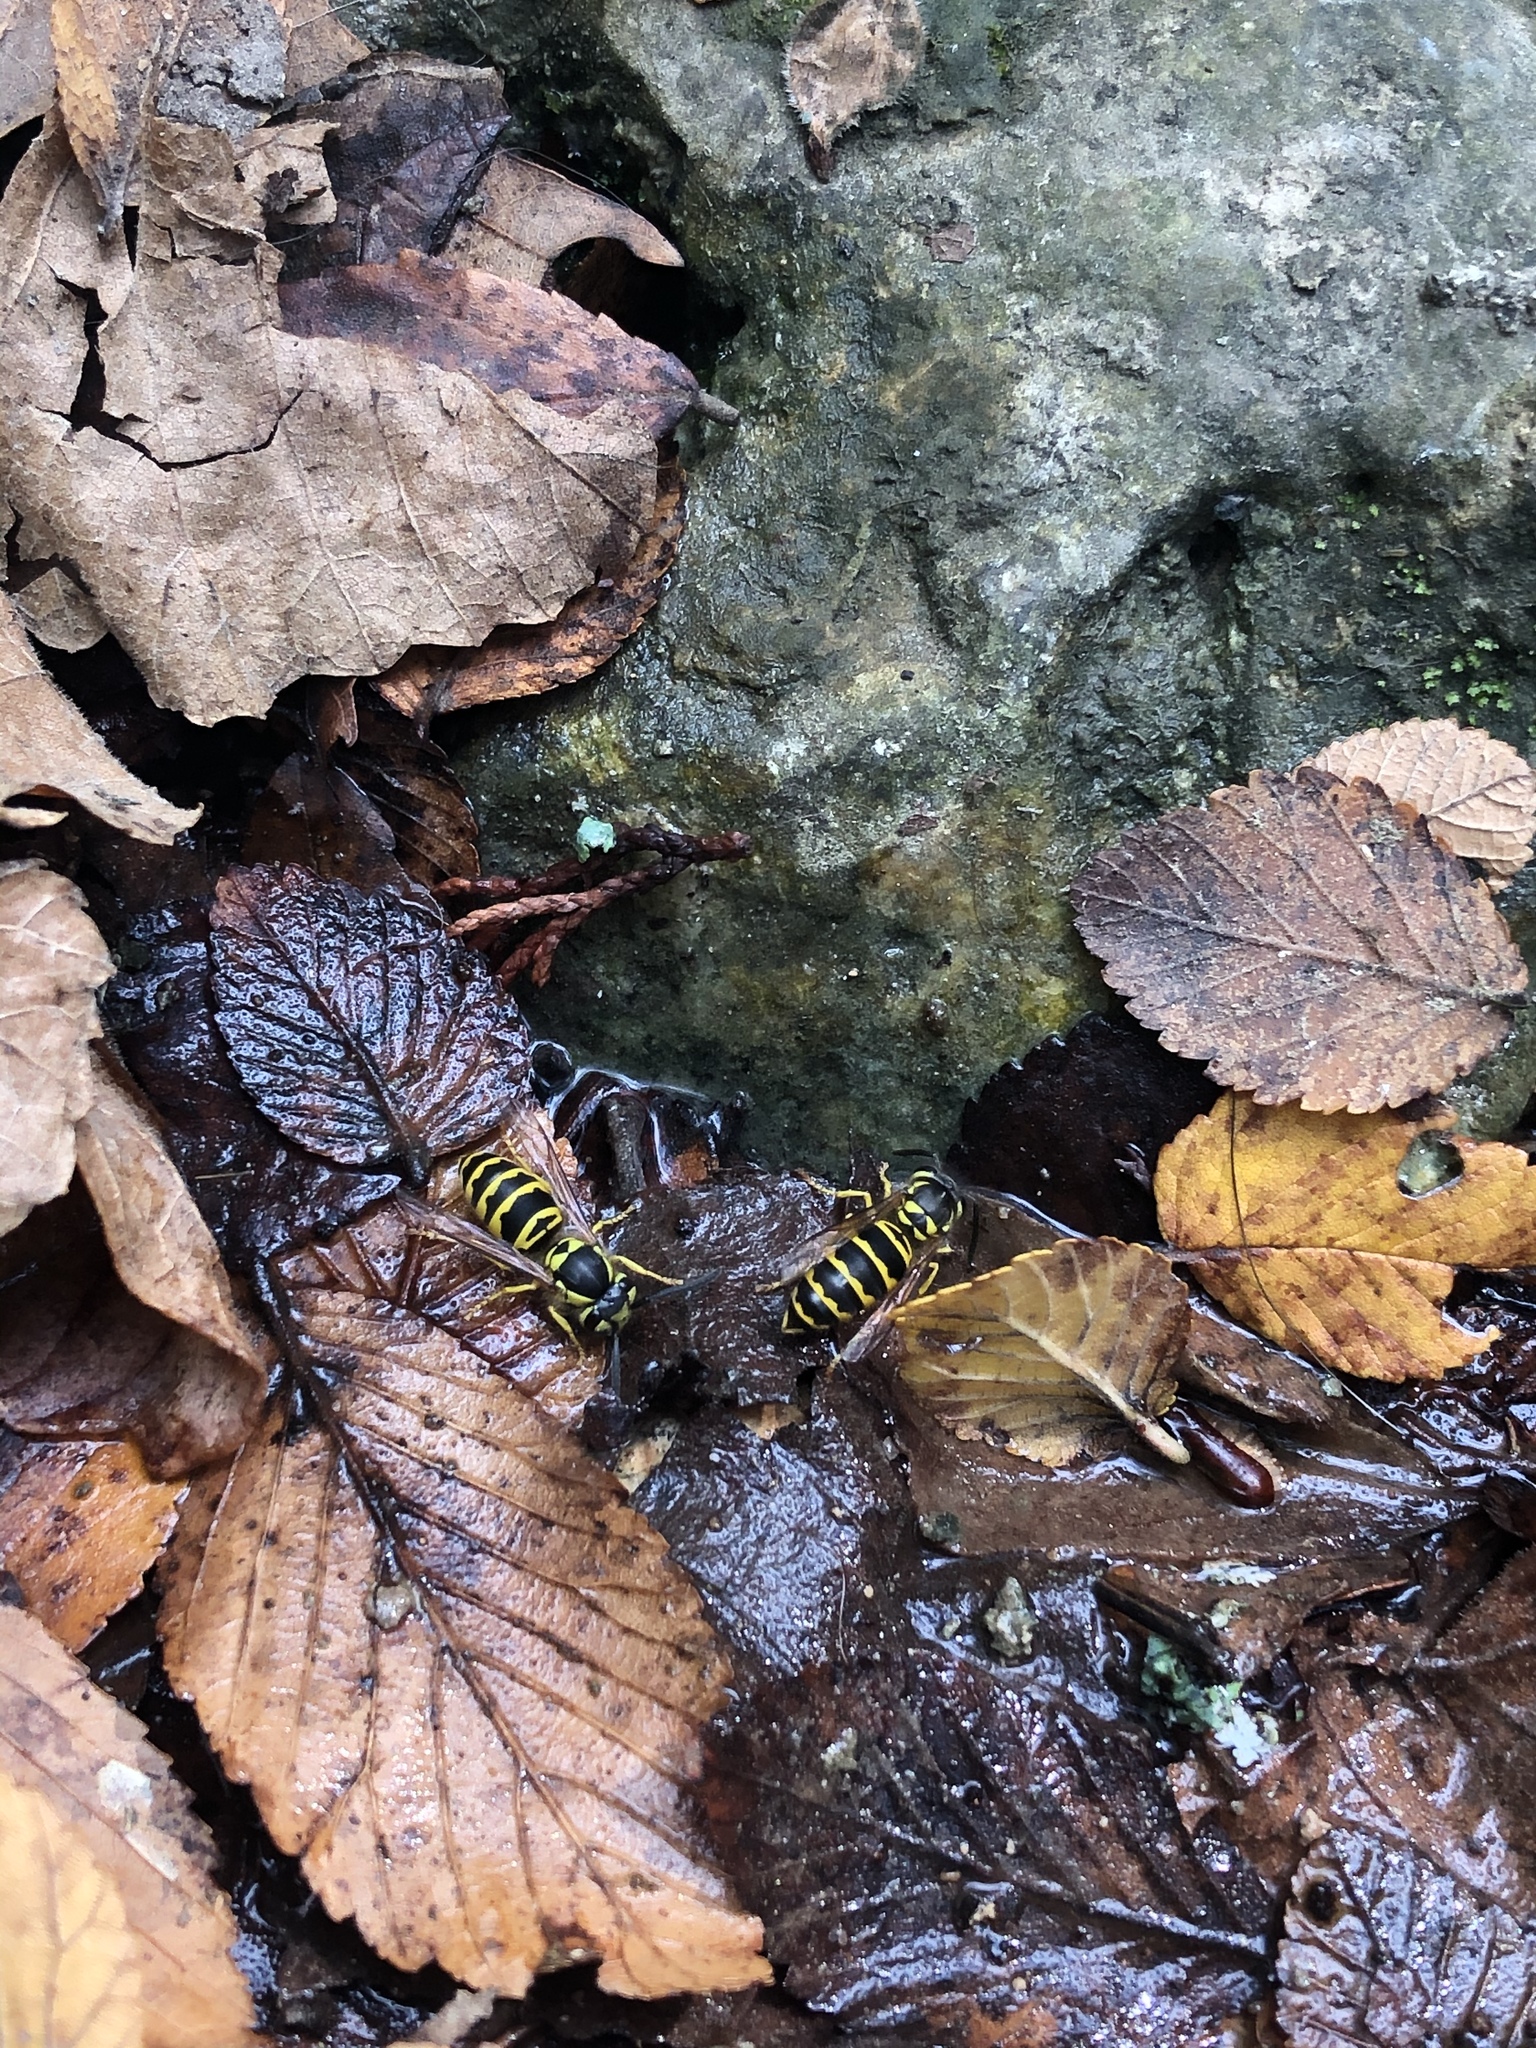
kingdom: Animalia
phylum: Arthropoda
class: Insecta
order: Hymenoptera
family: Vespidae
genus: Vespula
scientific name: Vespula maculifrons
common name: Eastern yellowjacket
